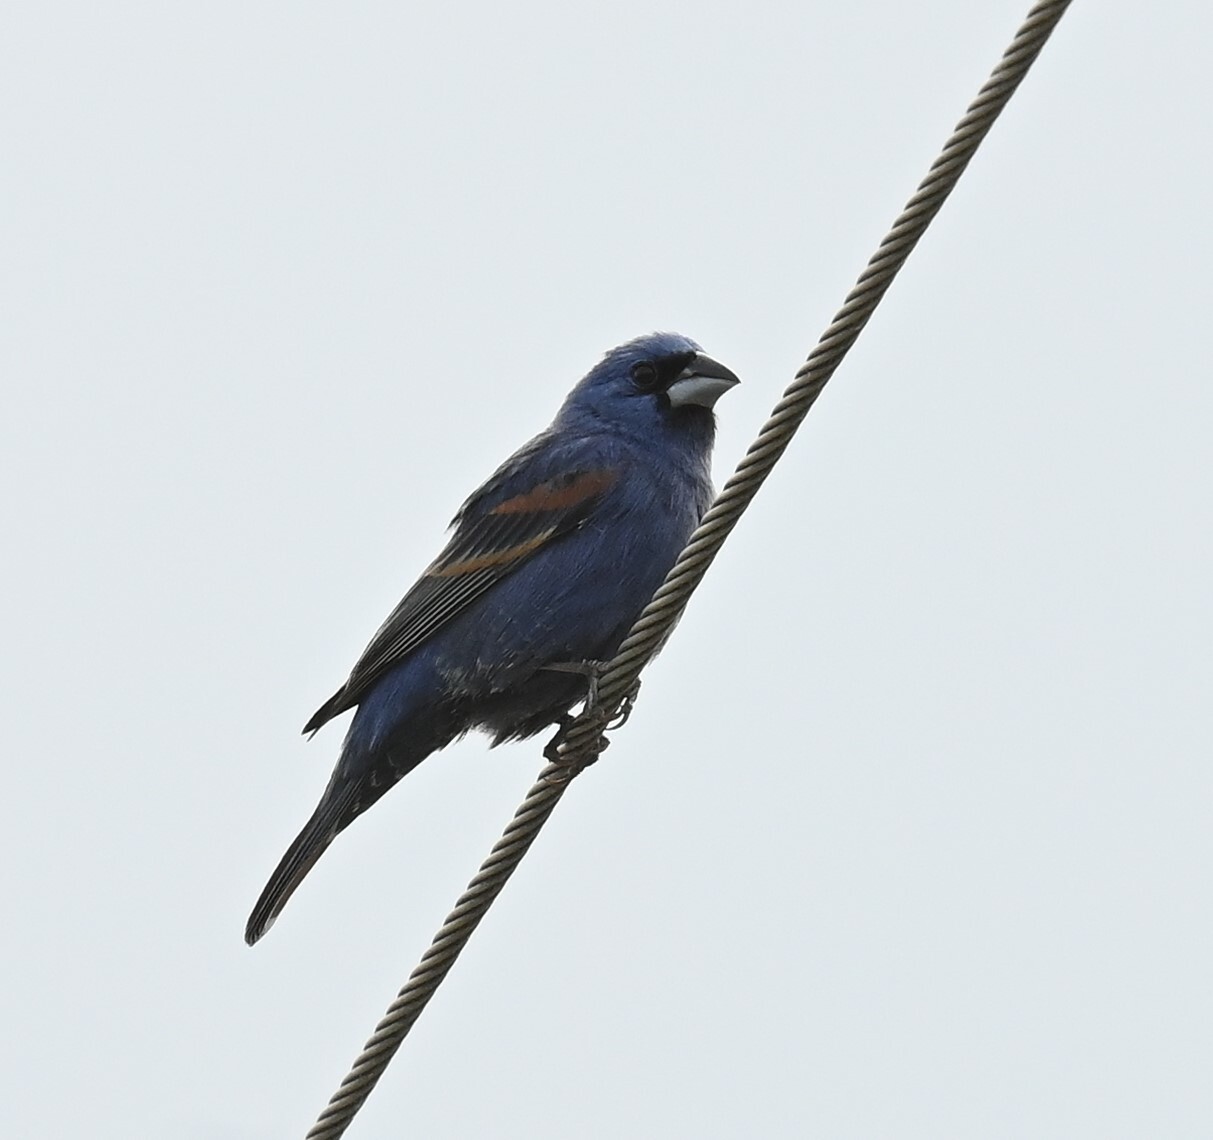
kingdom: Animalia
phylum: Chordata
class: Aves
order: Passeriformes
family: Cardinalidae
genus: Passerina
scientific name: Passerina caerulea
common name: Blue grosbeak
